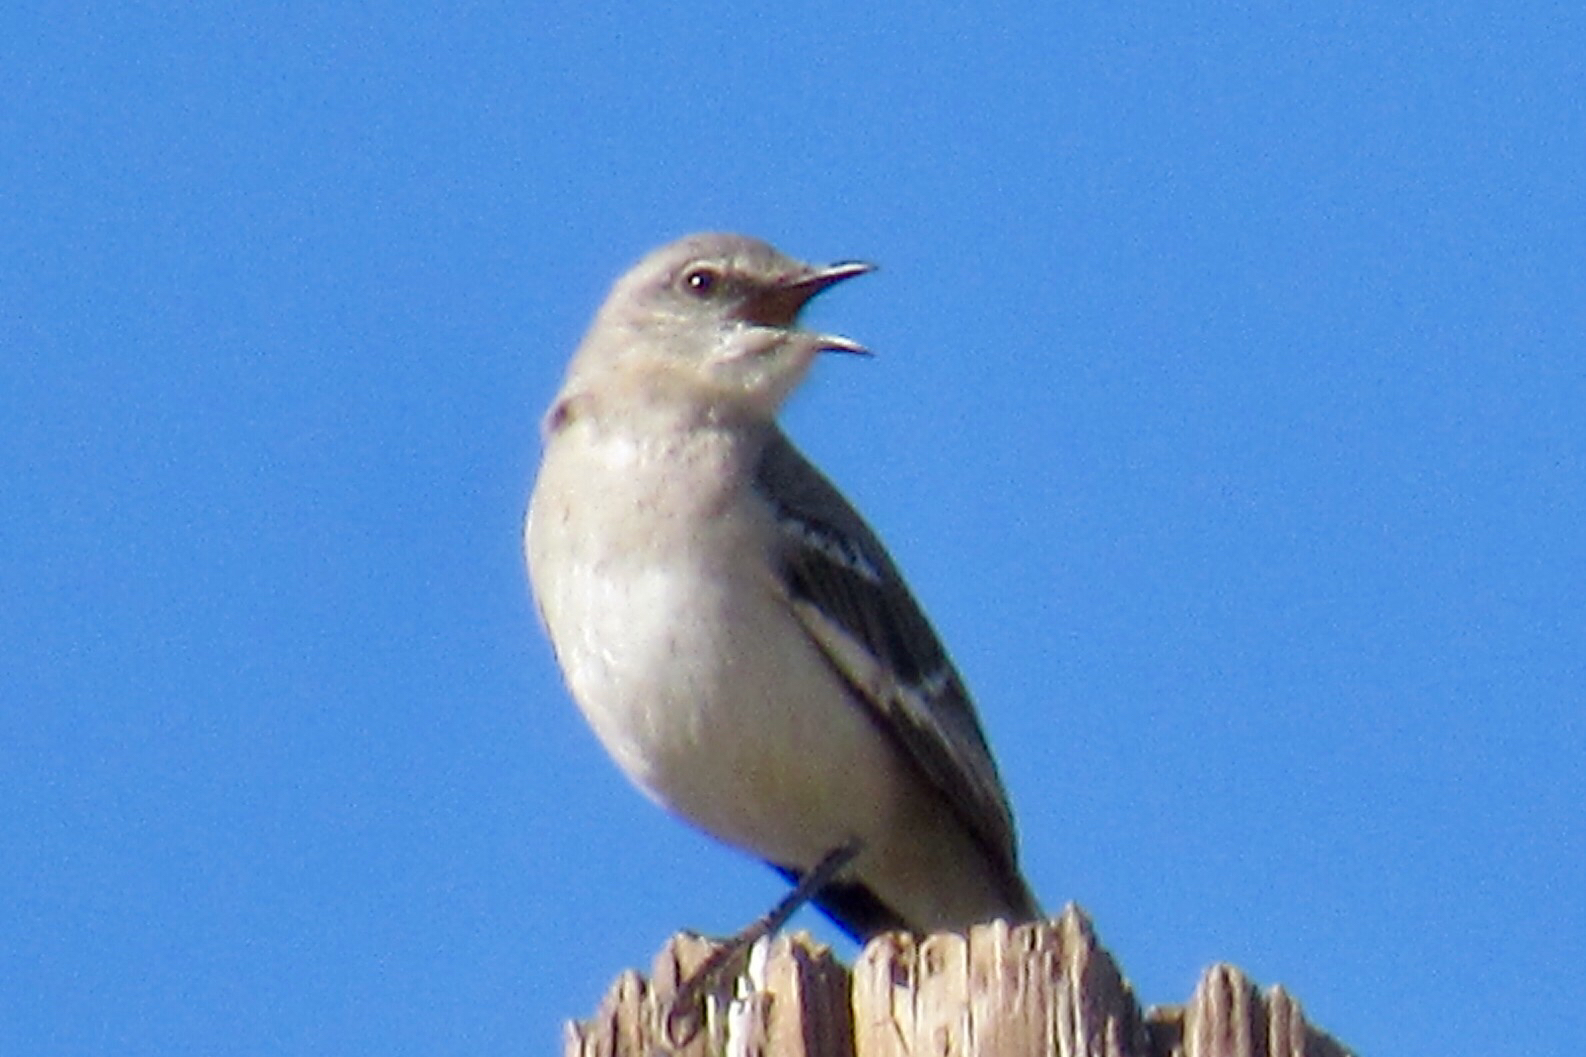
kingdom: Animalia
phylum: Chordata
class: Aves
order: Passeriformes
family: Mimidae
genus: Mimus
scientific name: Mimus polyglottos
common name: Northern mockingbird
